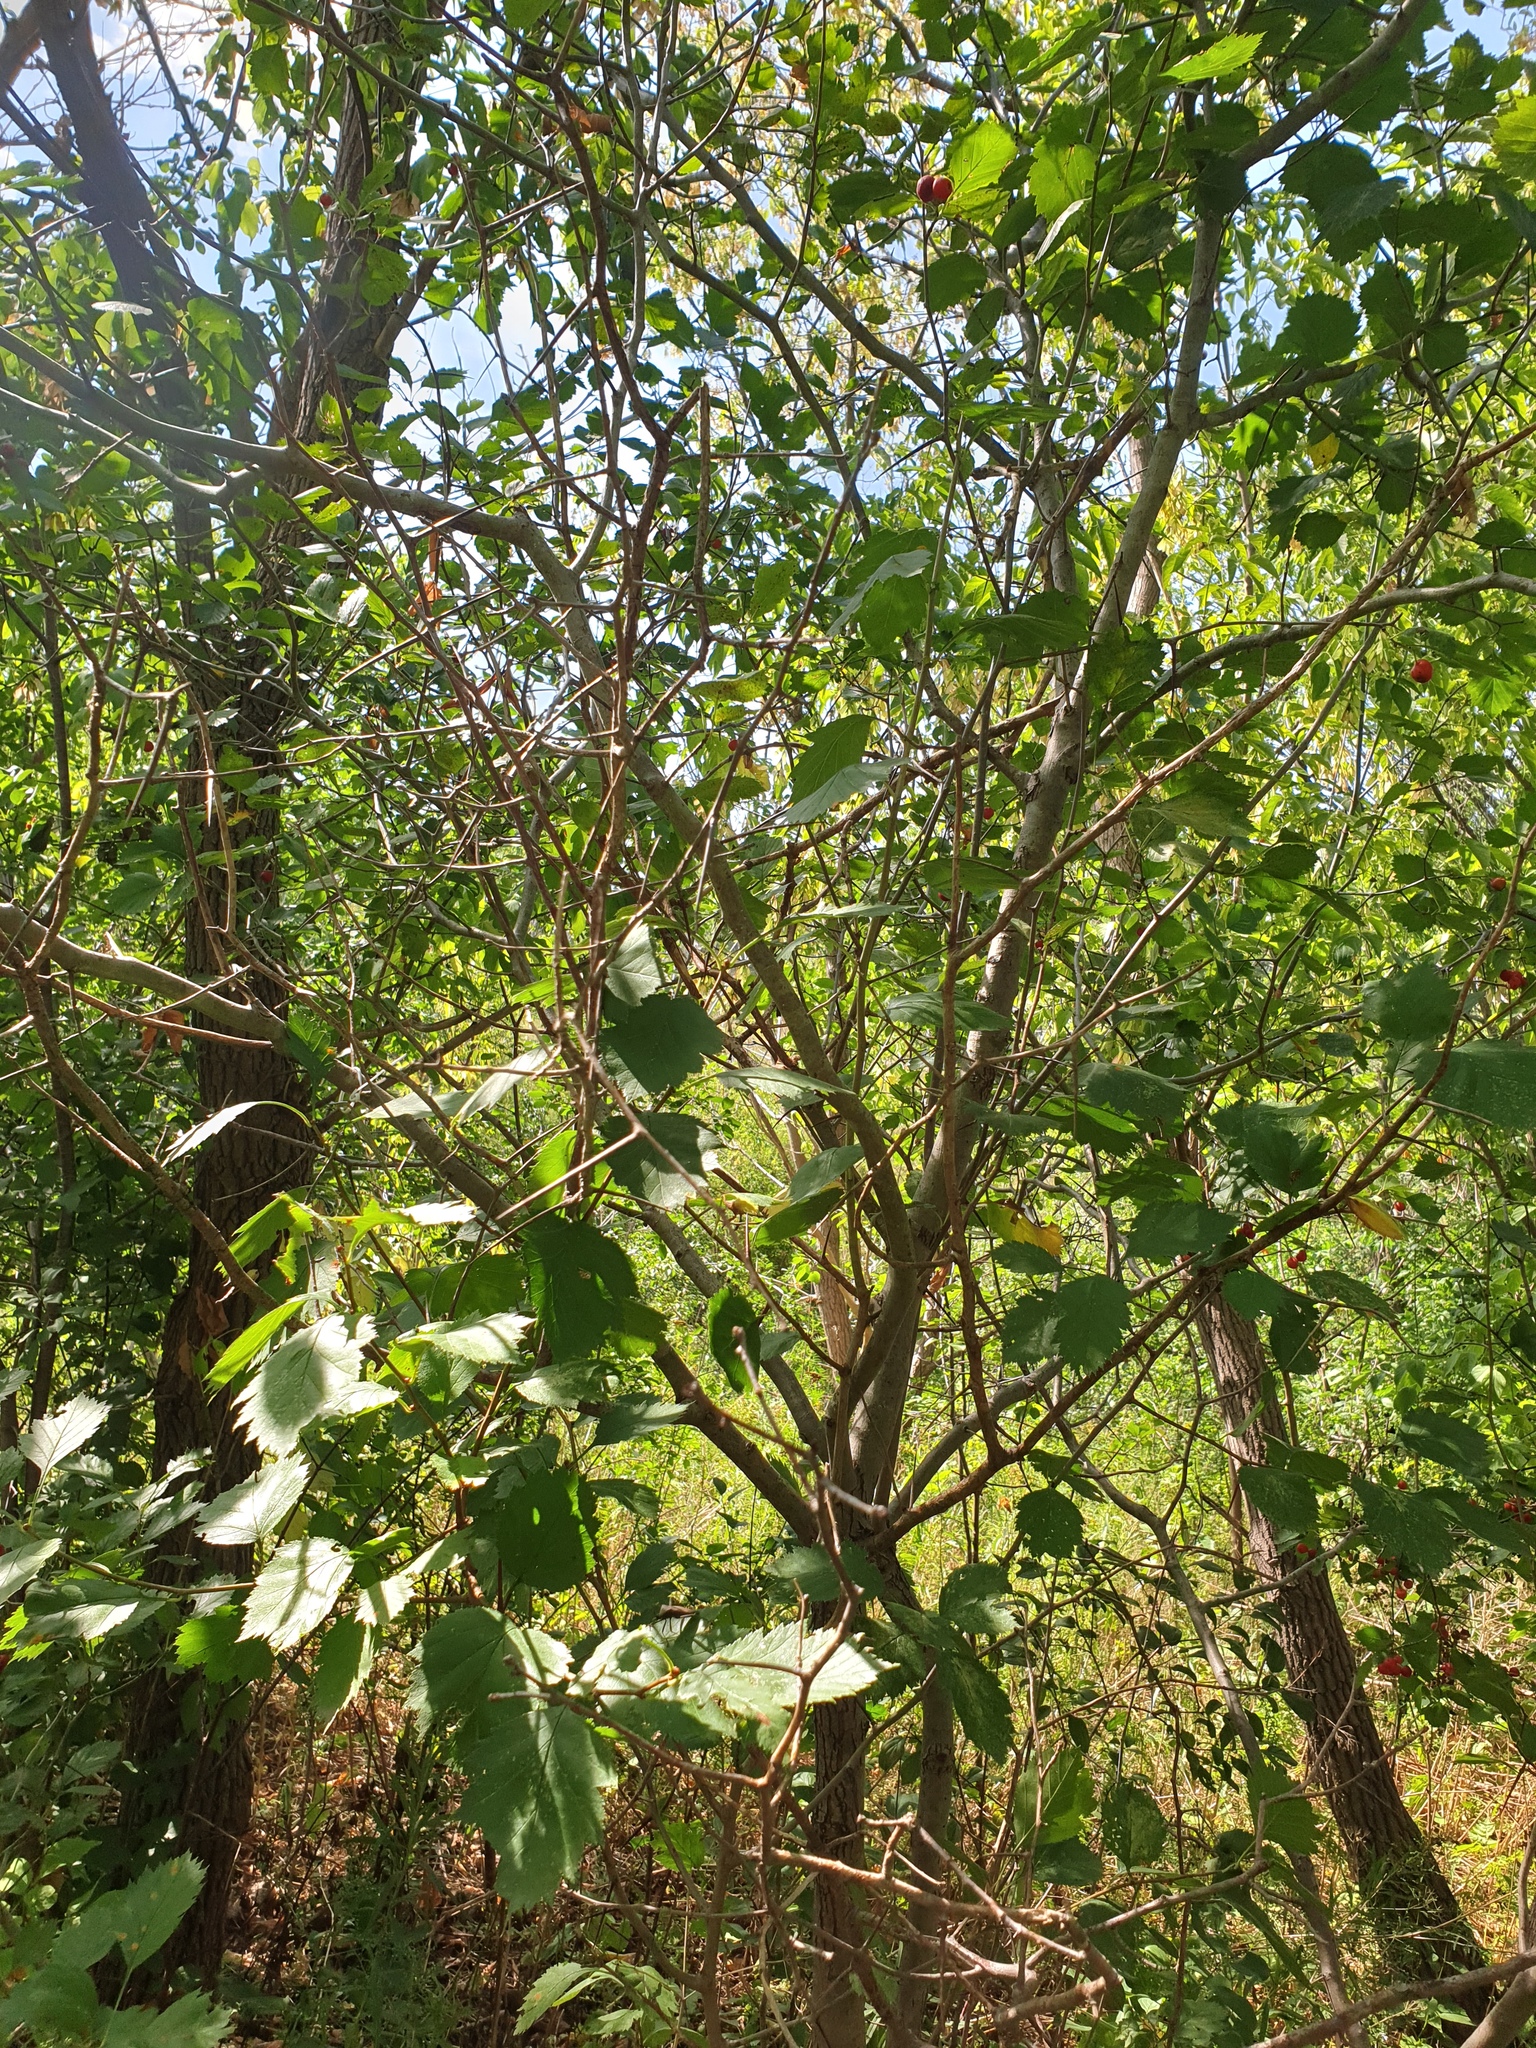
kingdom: Plantae
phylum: Tracheophyta
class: Magnoliopsida
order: Rosales
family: Rosaceae
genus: Crataegus
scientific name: Crataegus chrysocarpa
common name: Fire-berry hawthorn
